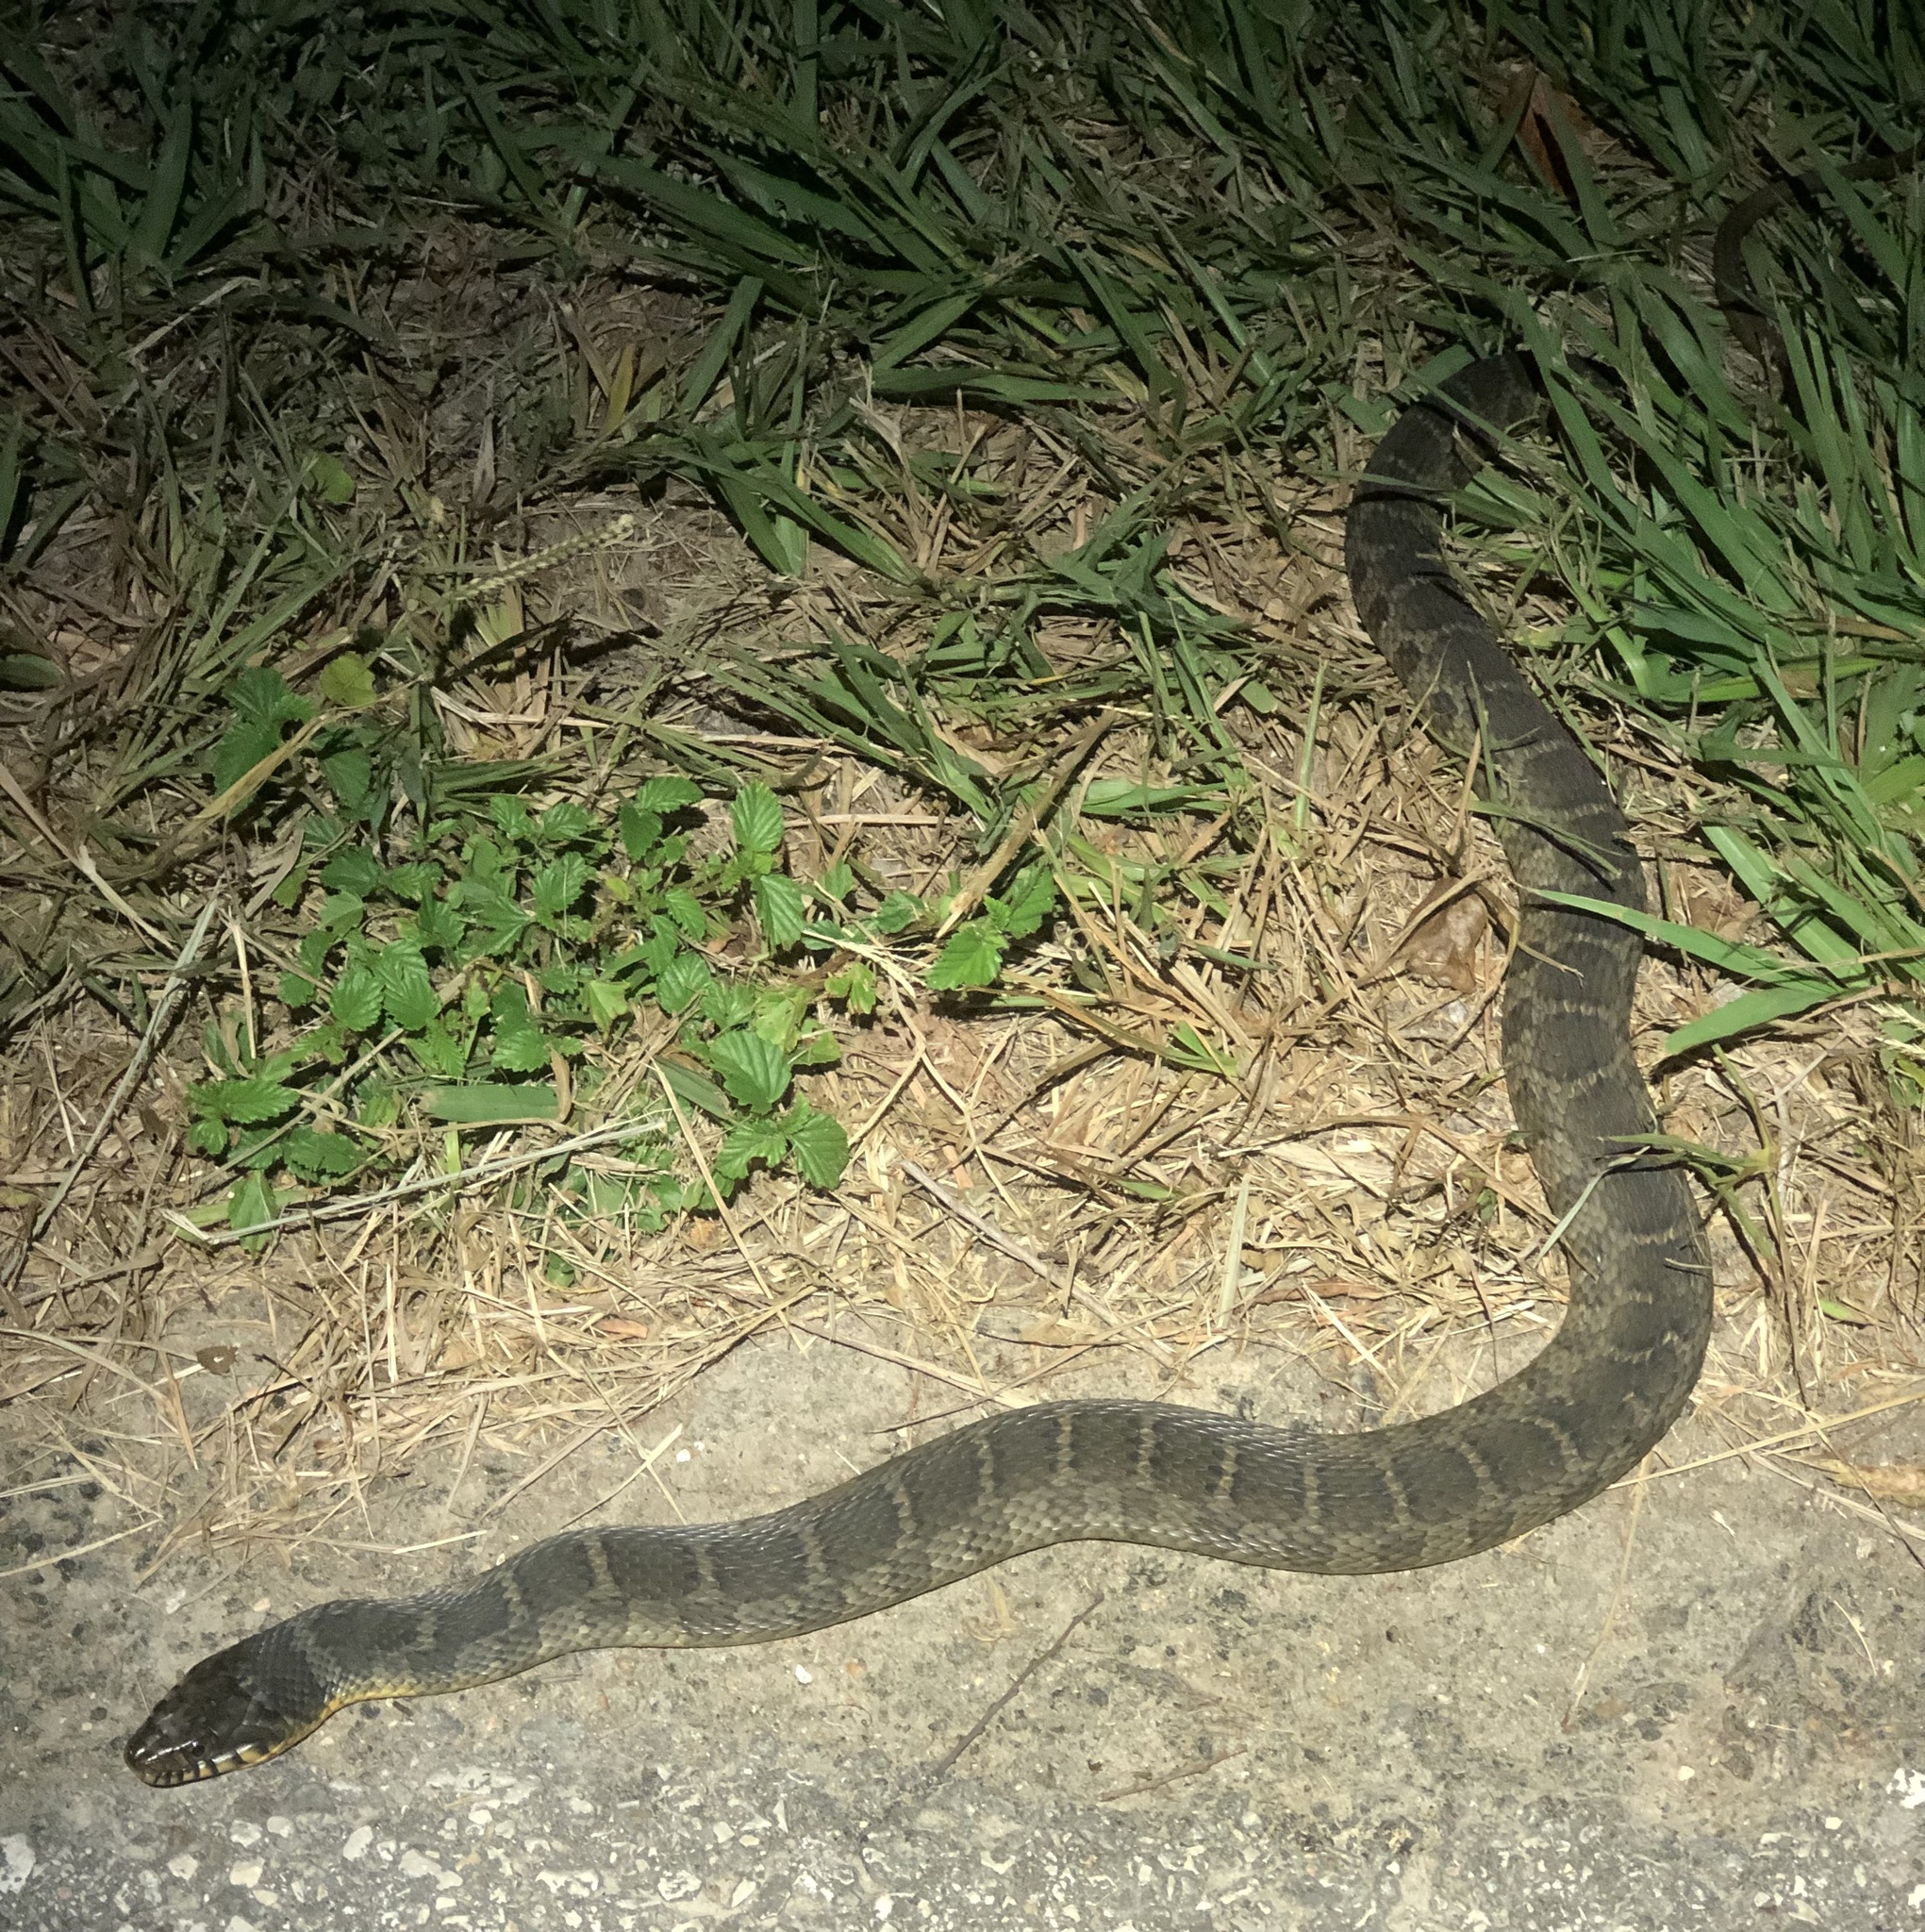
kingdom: Animalia
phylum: Chordata
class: Squamata
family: Colubridae
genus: Nerodia
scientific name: Nerodia erythrogaster
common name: Plainbelly water snake
